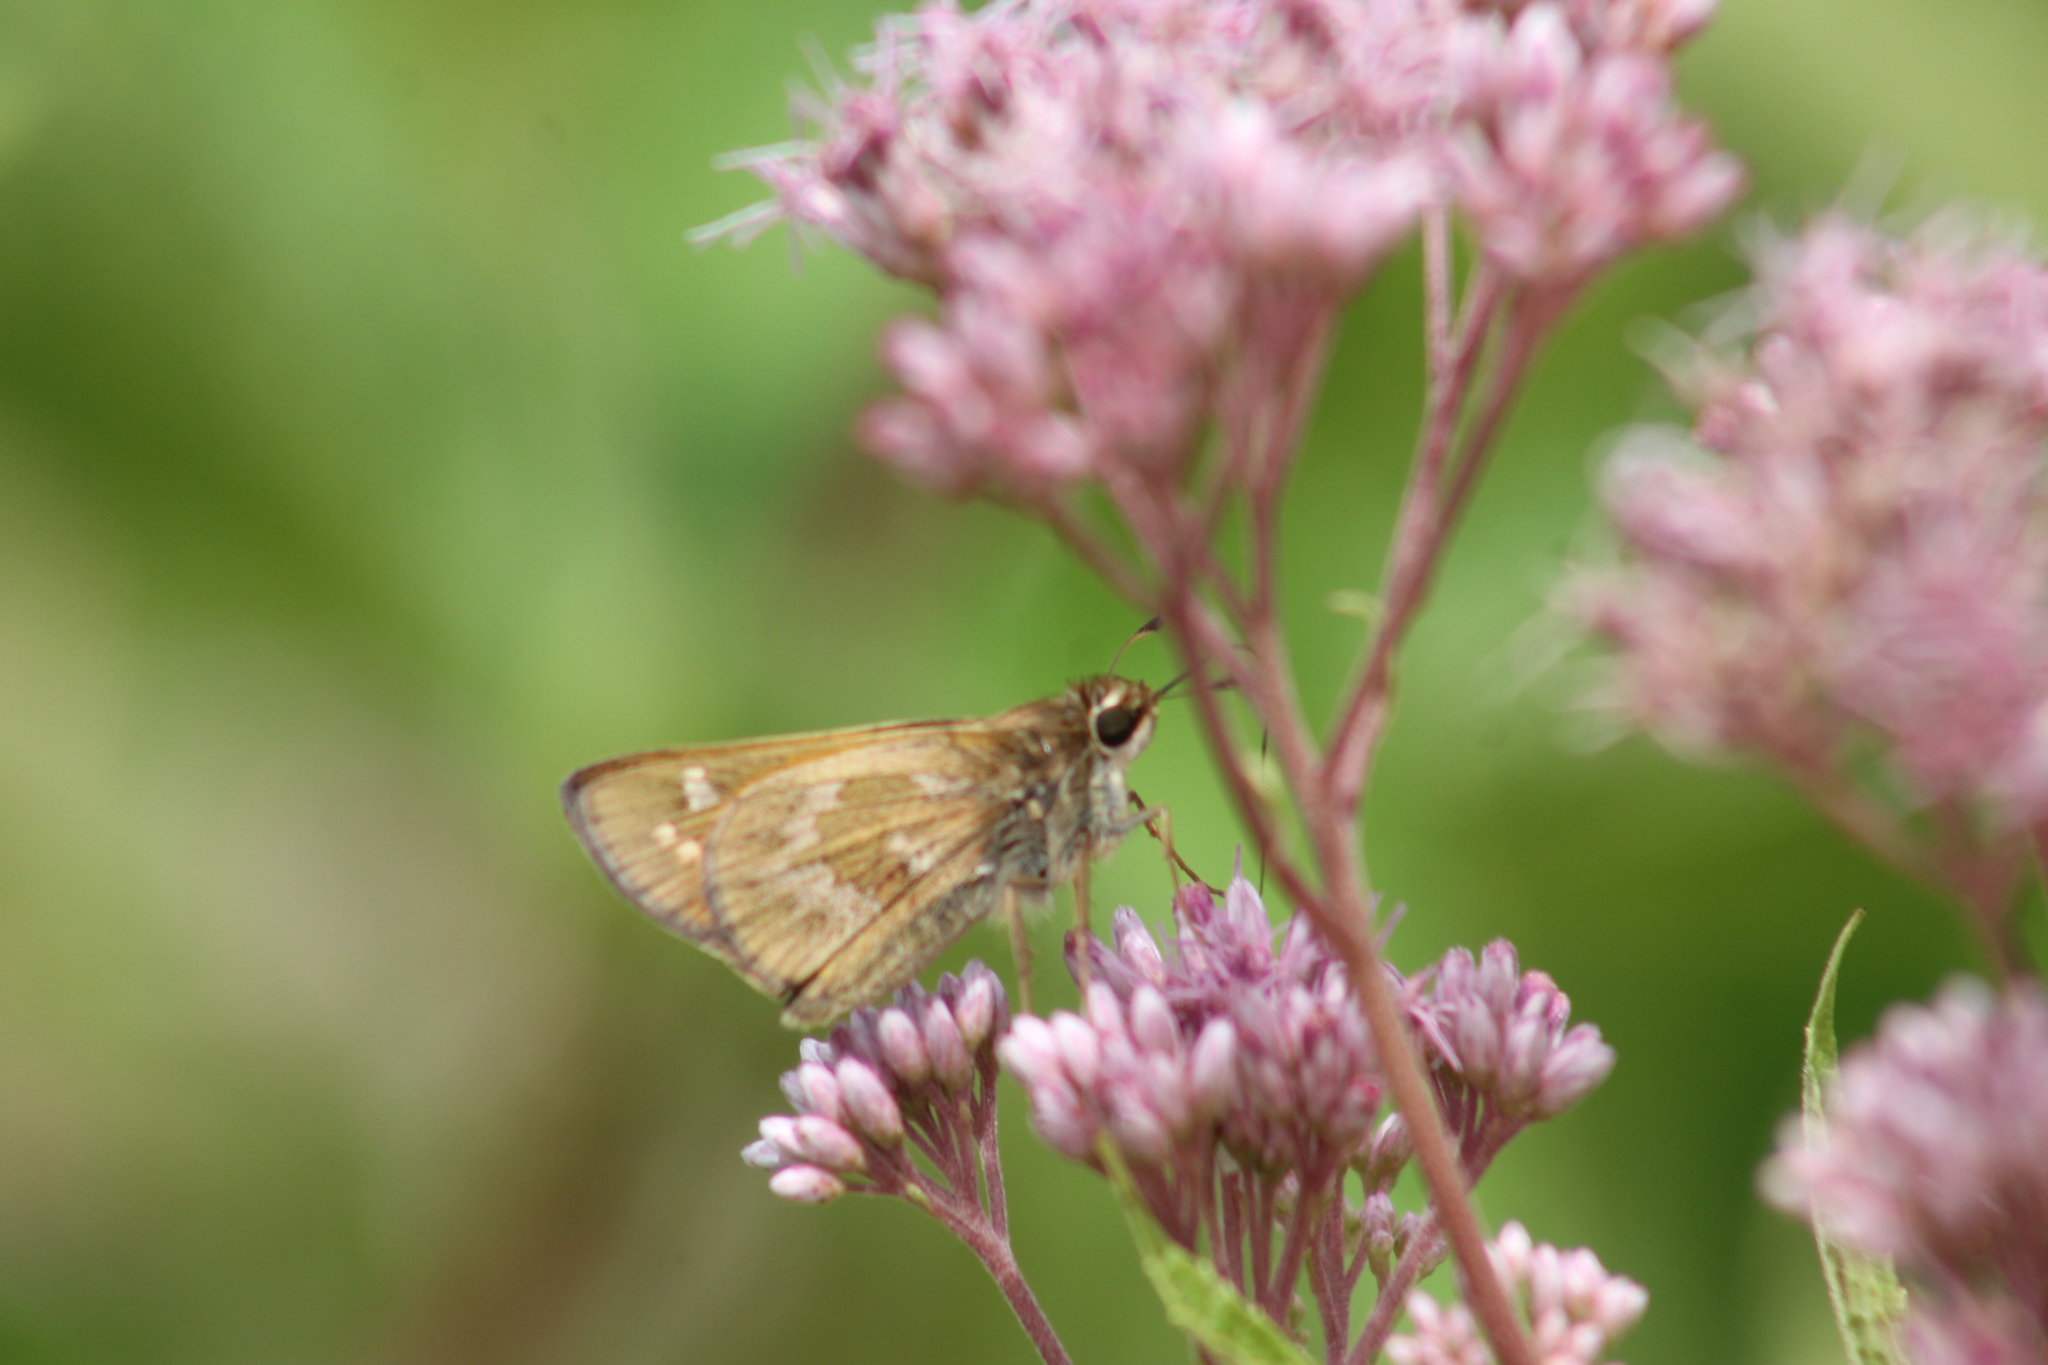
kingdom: Animalia
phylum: Arthropoda
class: Insecta
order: Lepidoptera
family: Hesperiidae
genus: Atalopedes
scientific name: Atalopedes
